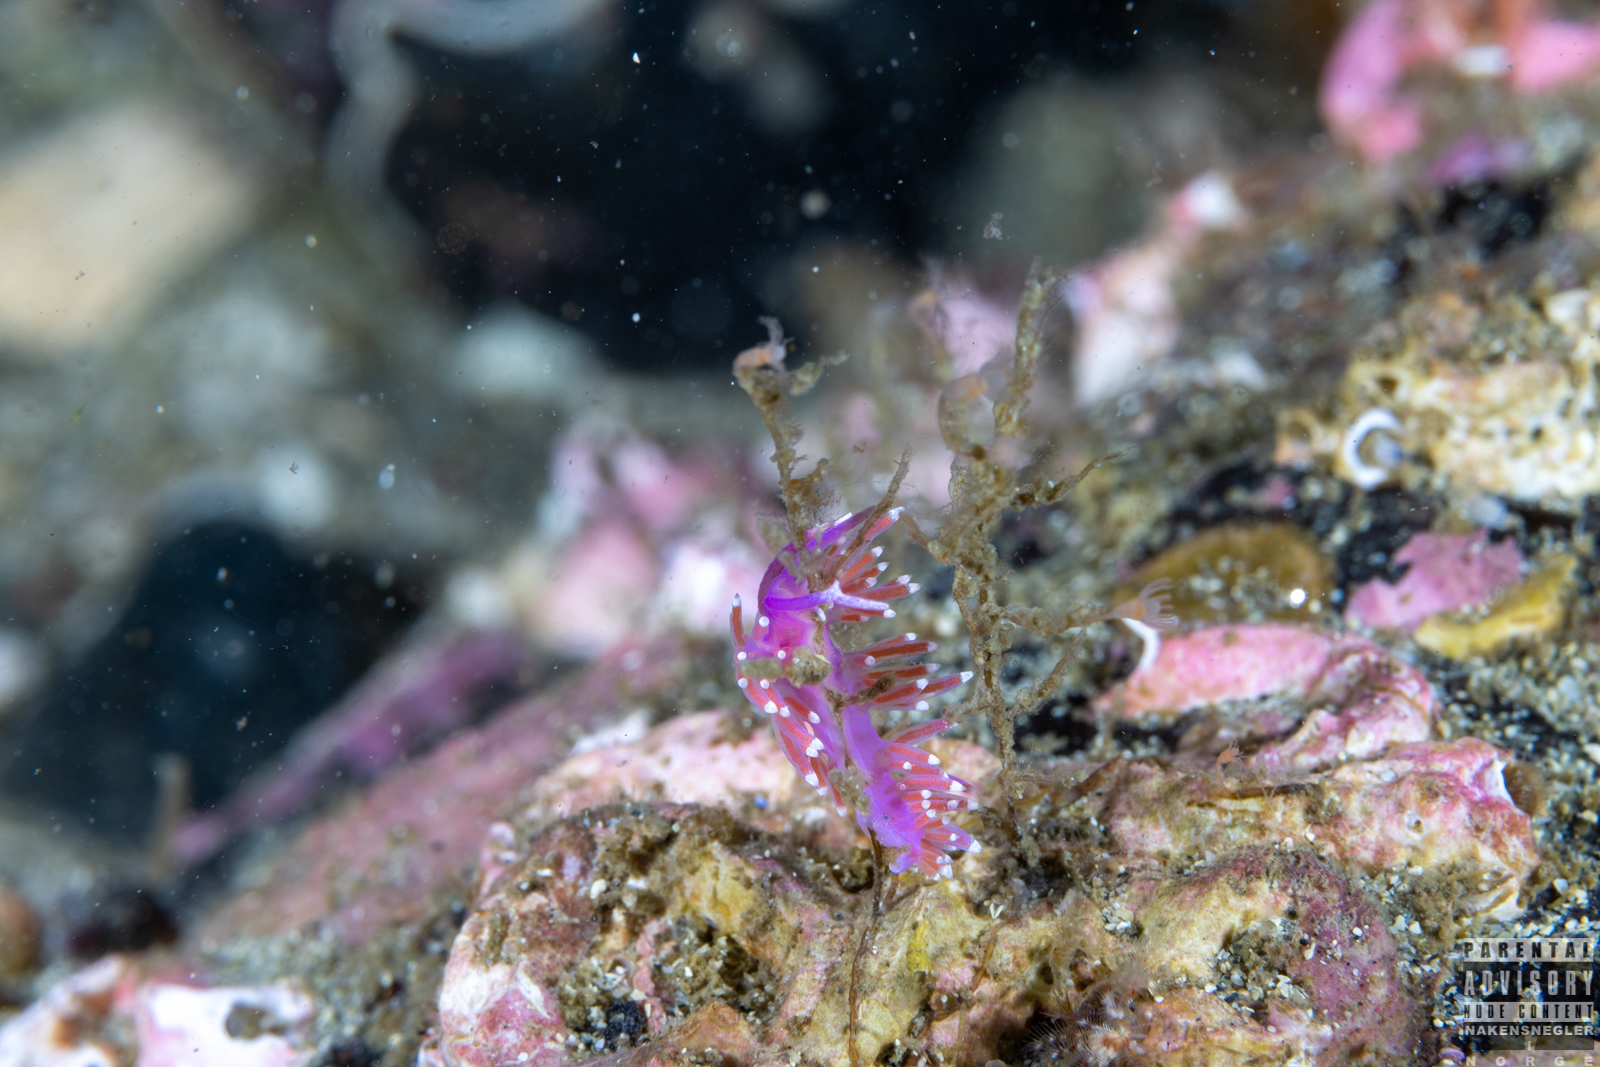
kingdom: Animalia
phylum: Mollusca
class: Gastropoda
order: Nudibranchia
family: Flabellinidae
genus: Edmundsella
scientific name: Edmundsella pedata
